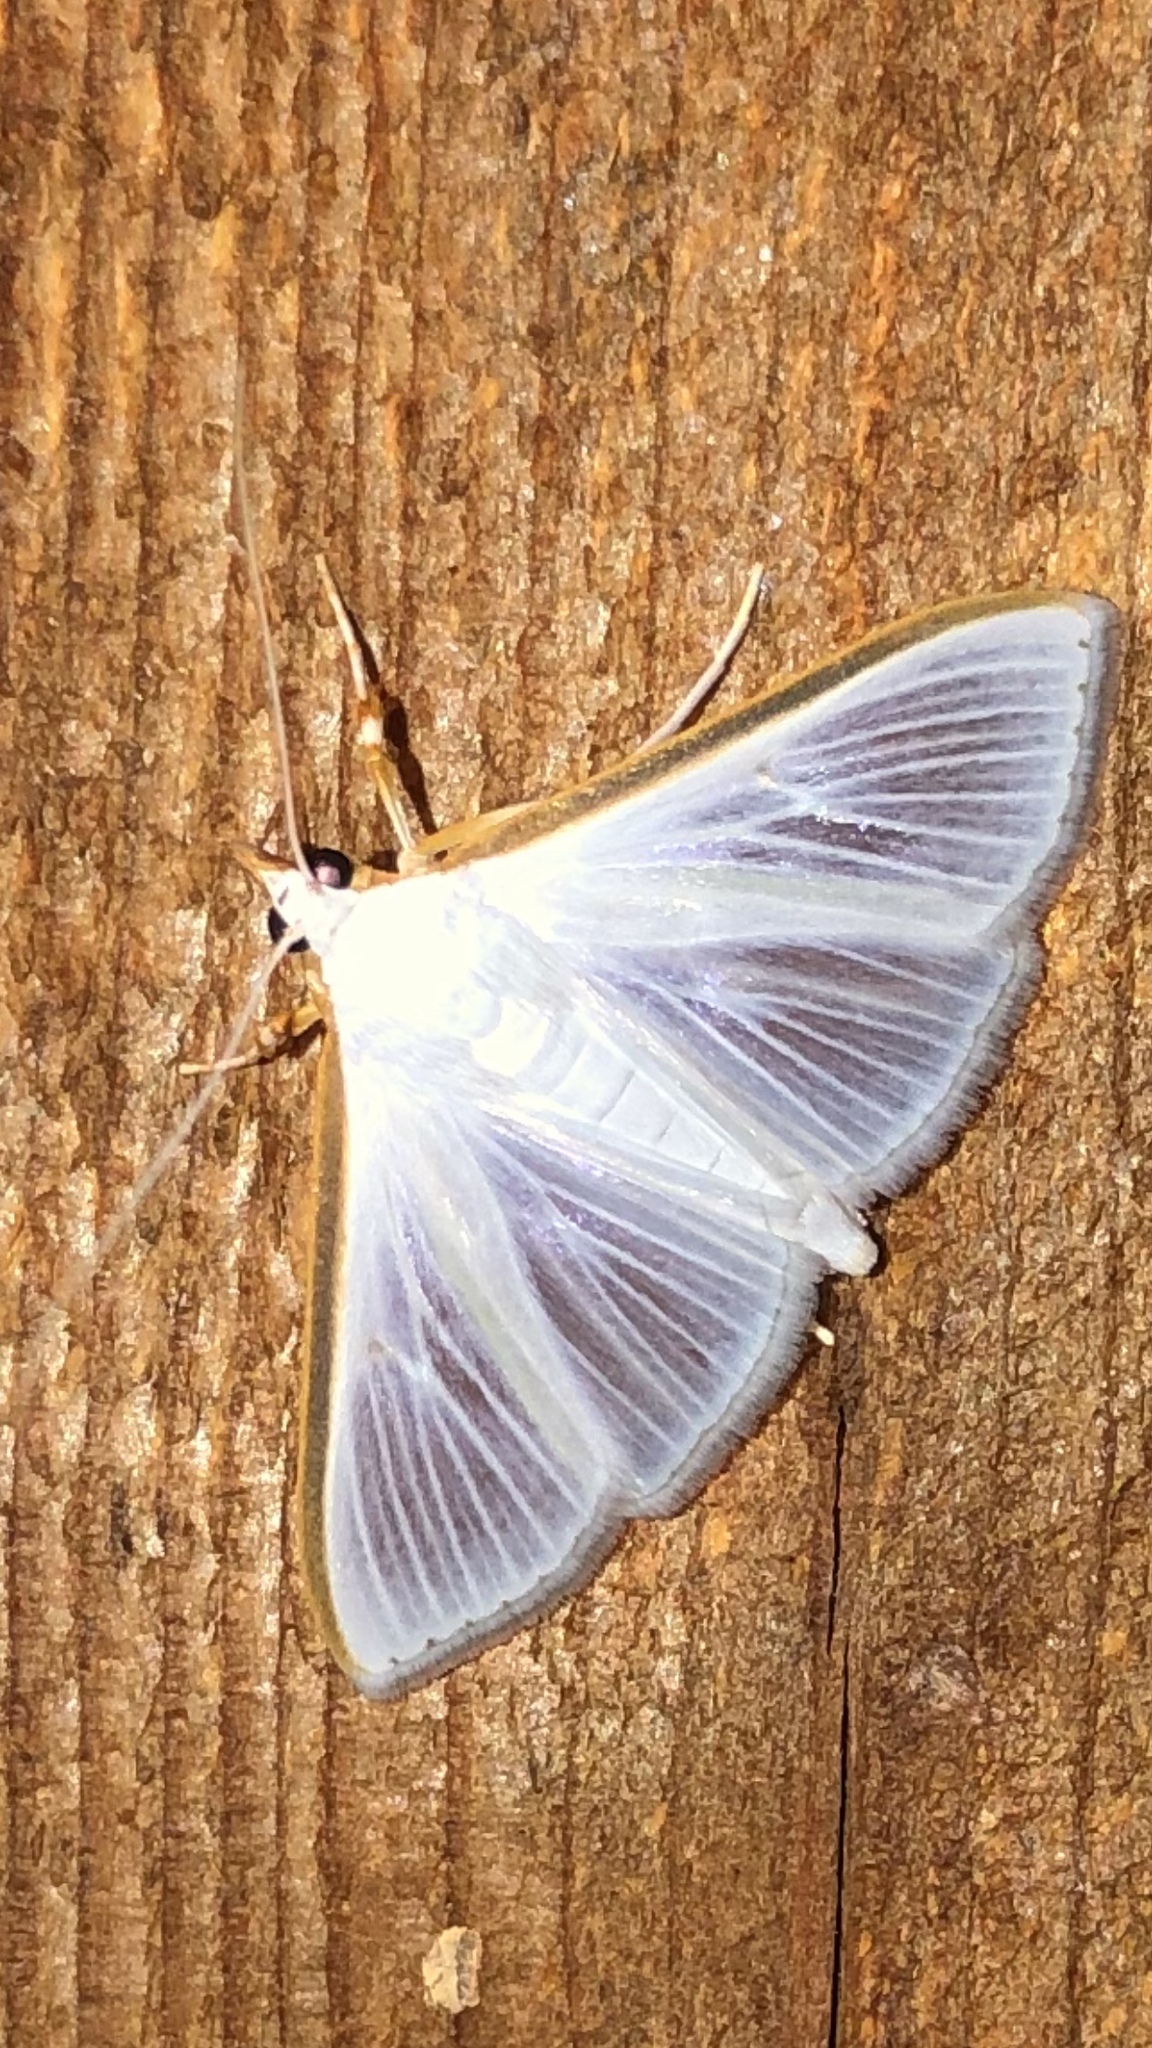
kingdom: Animalia
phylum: Arthropoda
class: Insecta
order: Lepidoptera
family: Crambidae
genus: Diaphania
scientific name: Diaphania costata
